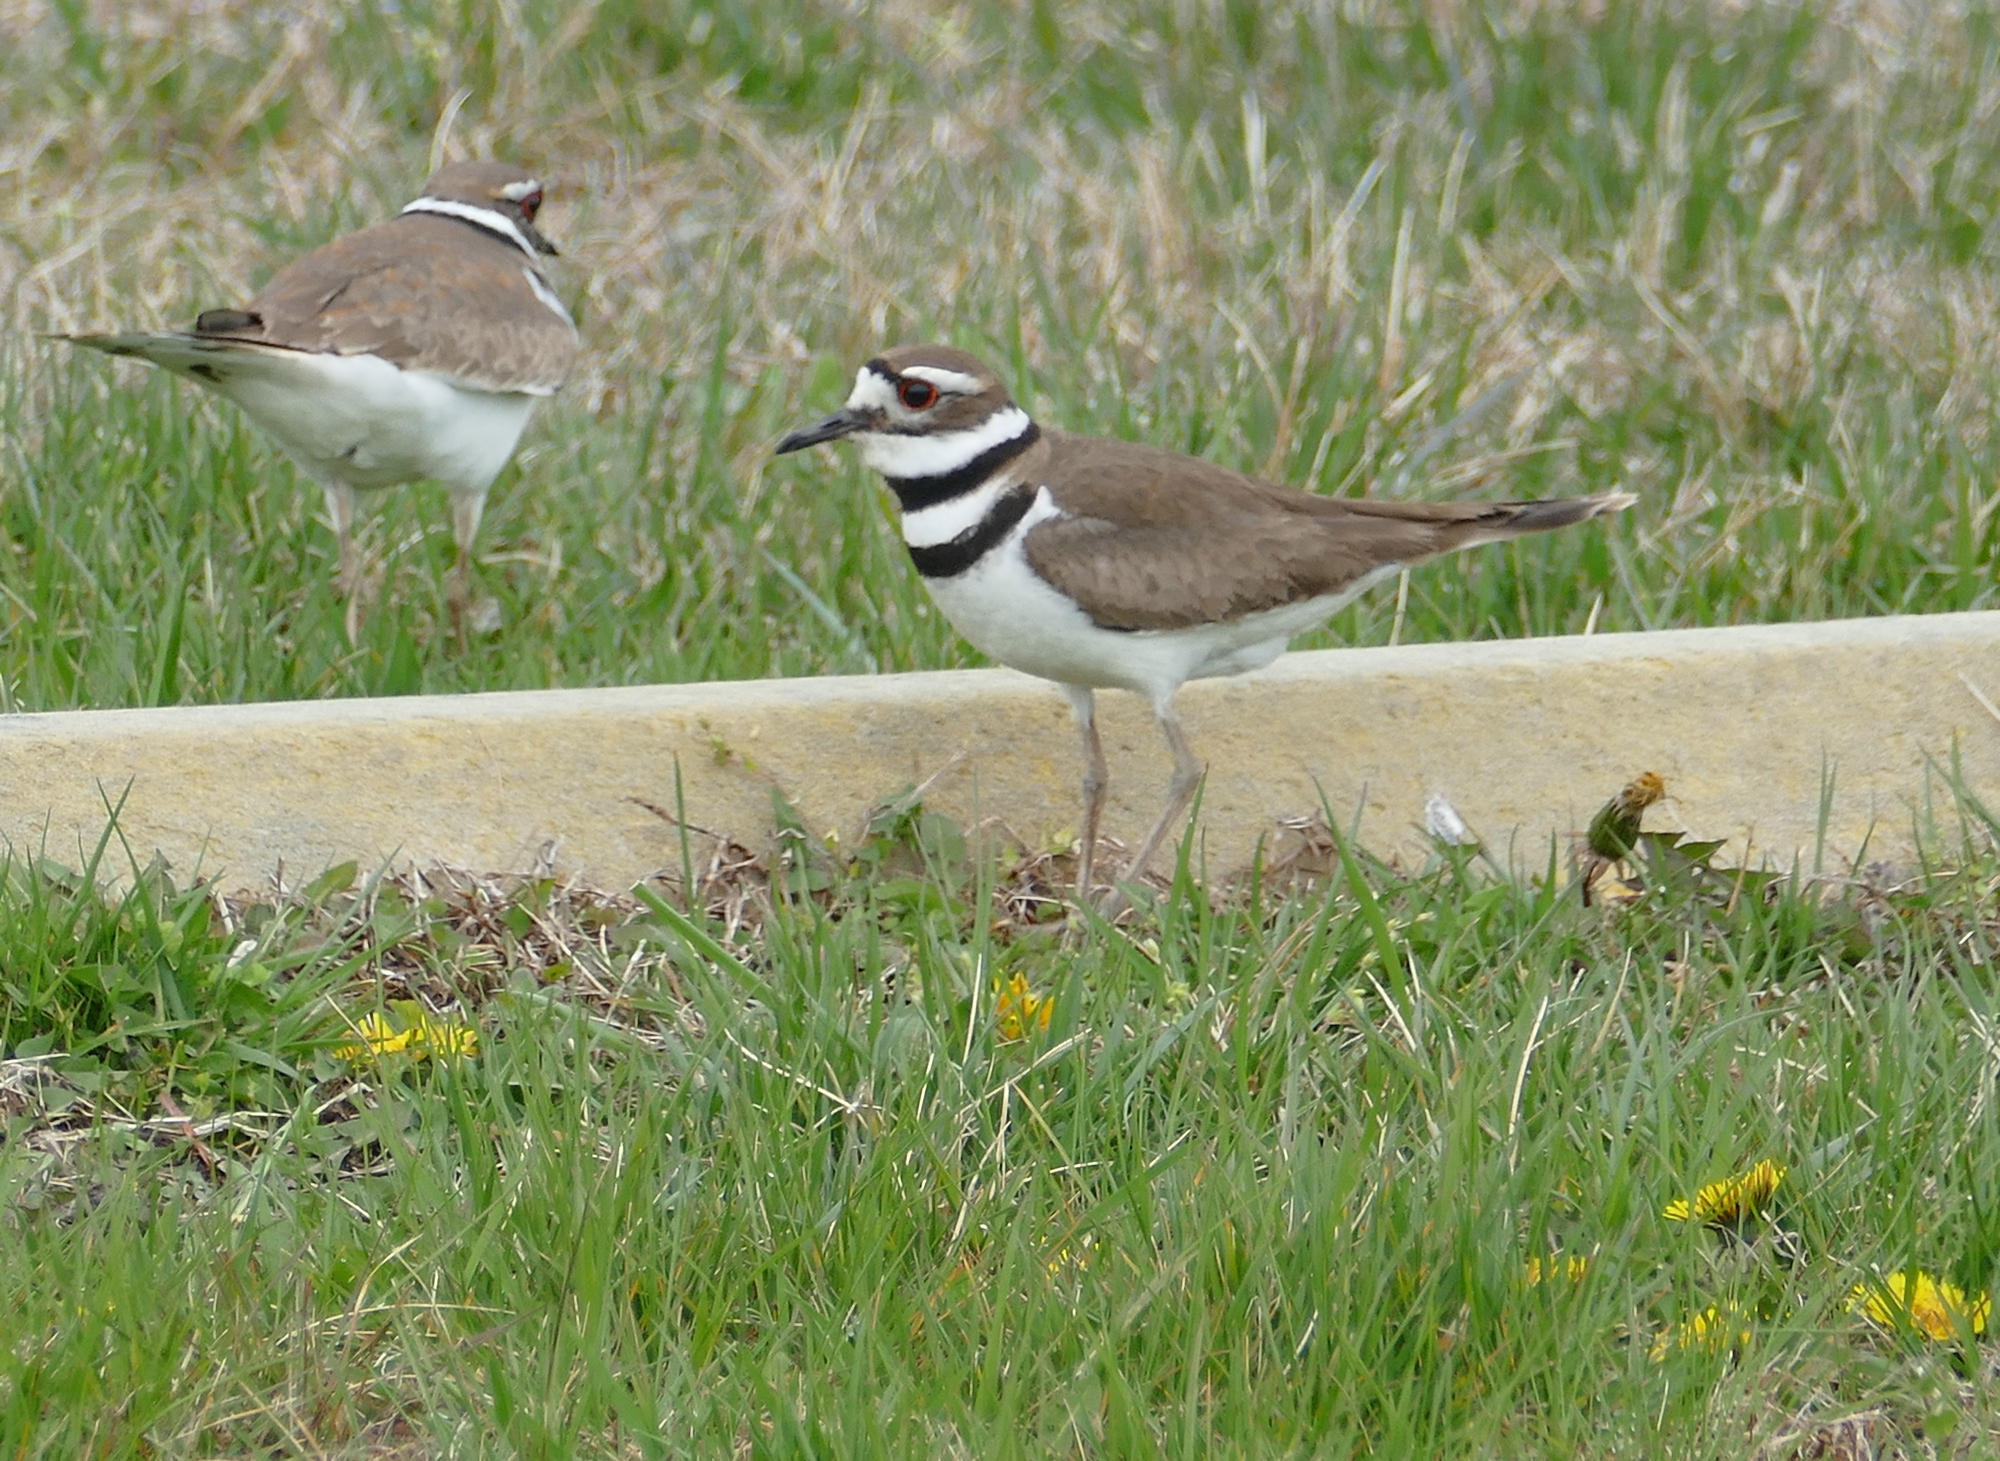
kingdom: Animalia
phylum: Chordata
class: Aves
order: Charadriiformes
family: Charadriidae
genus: Charadrius
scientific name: Charadrius vociferus
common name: Killdeer
